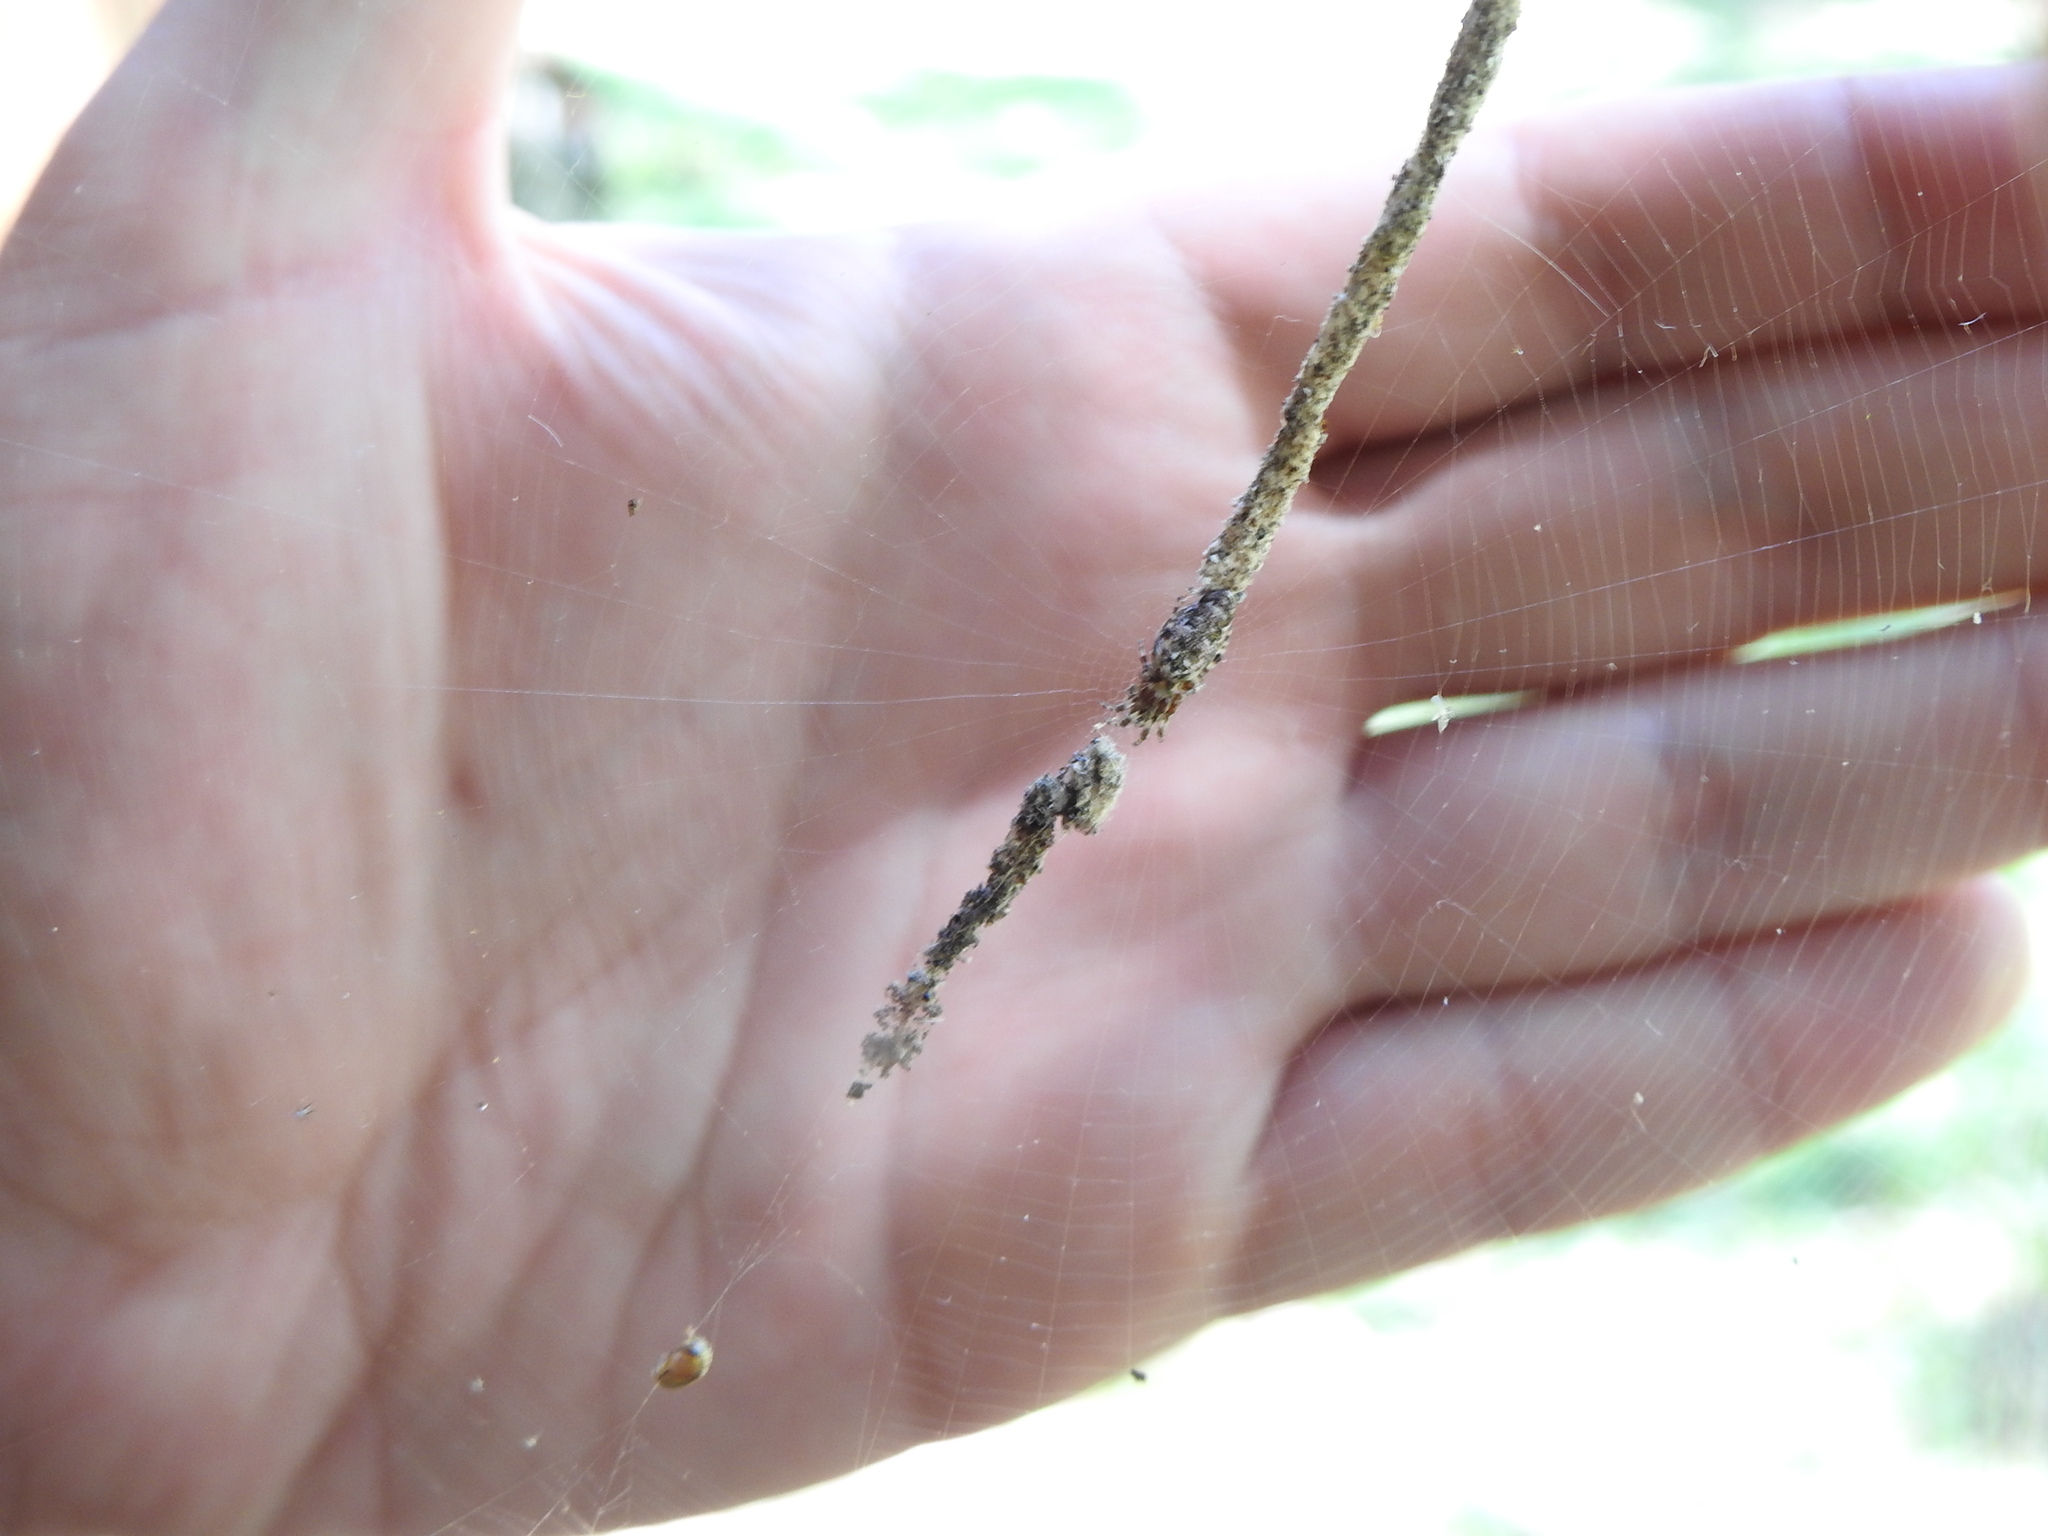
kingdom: Animalia
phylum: Chordata
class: Aves
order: Passeriformes
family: Turdidae
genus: Turdus
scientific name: Turdus leucomelas
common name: Pale-breasted thrush
